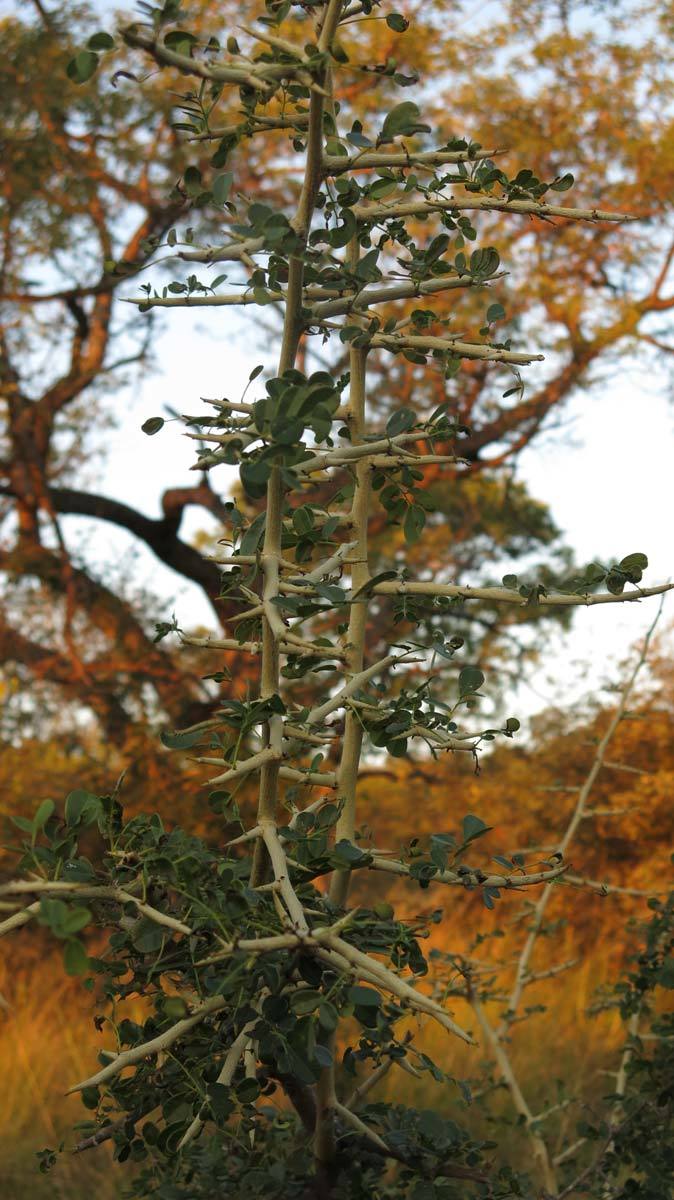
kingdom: Plantae
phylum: Tracheophyta
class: Magnoliopsida
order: Fabales
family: Fabaceae
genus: Dalbergia
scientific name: Dalbergia melanoxylon
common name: African blackwood
